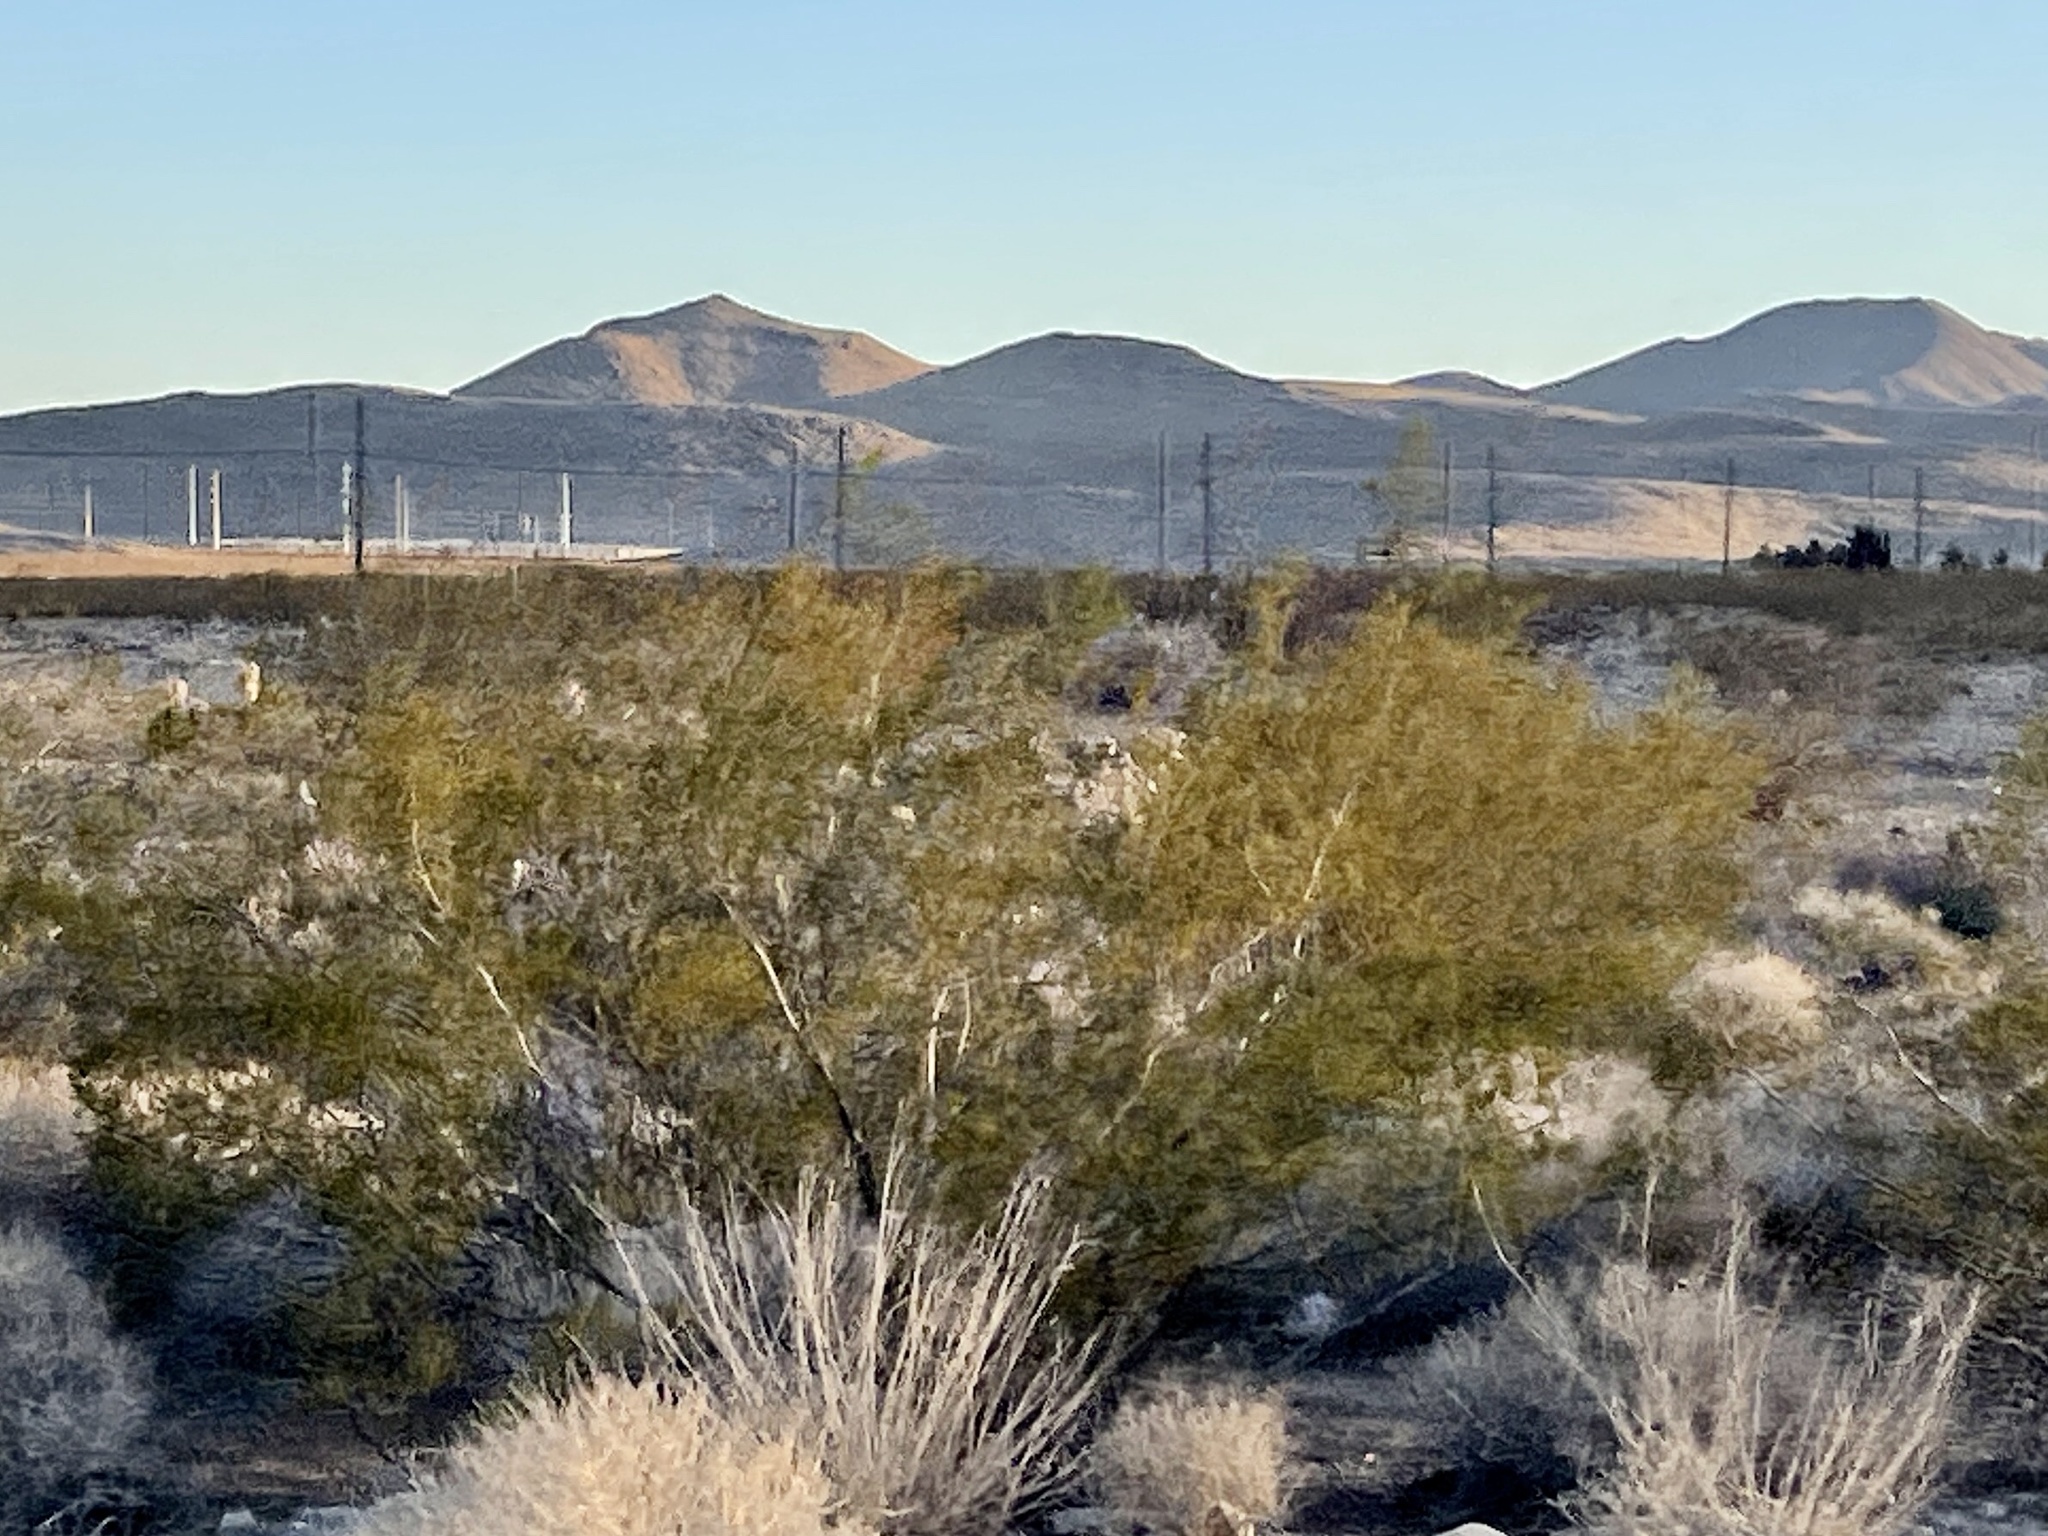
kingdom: Plantae
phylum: Tracheophyta
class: Magnoliopsida
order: Zygophyllales
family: Zygophyllaceae
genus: Larrea
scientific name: Larrea tridentata
